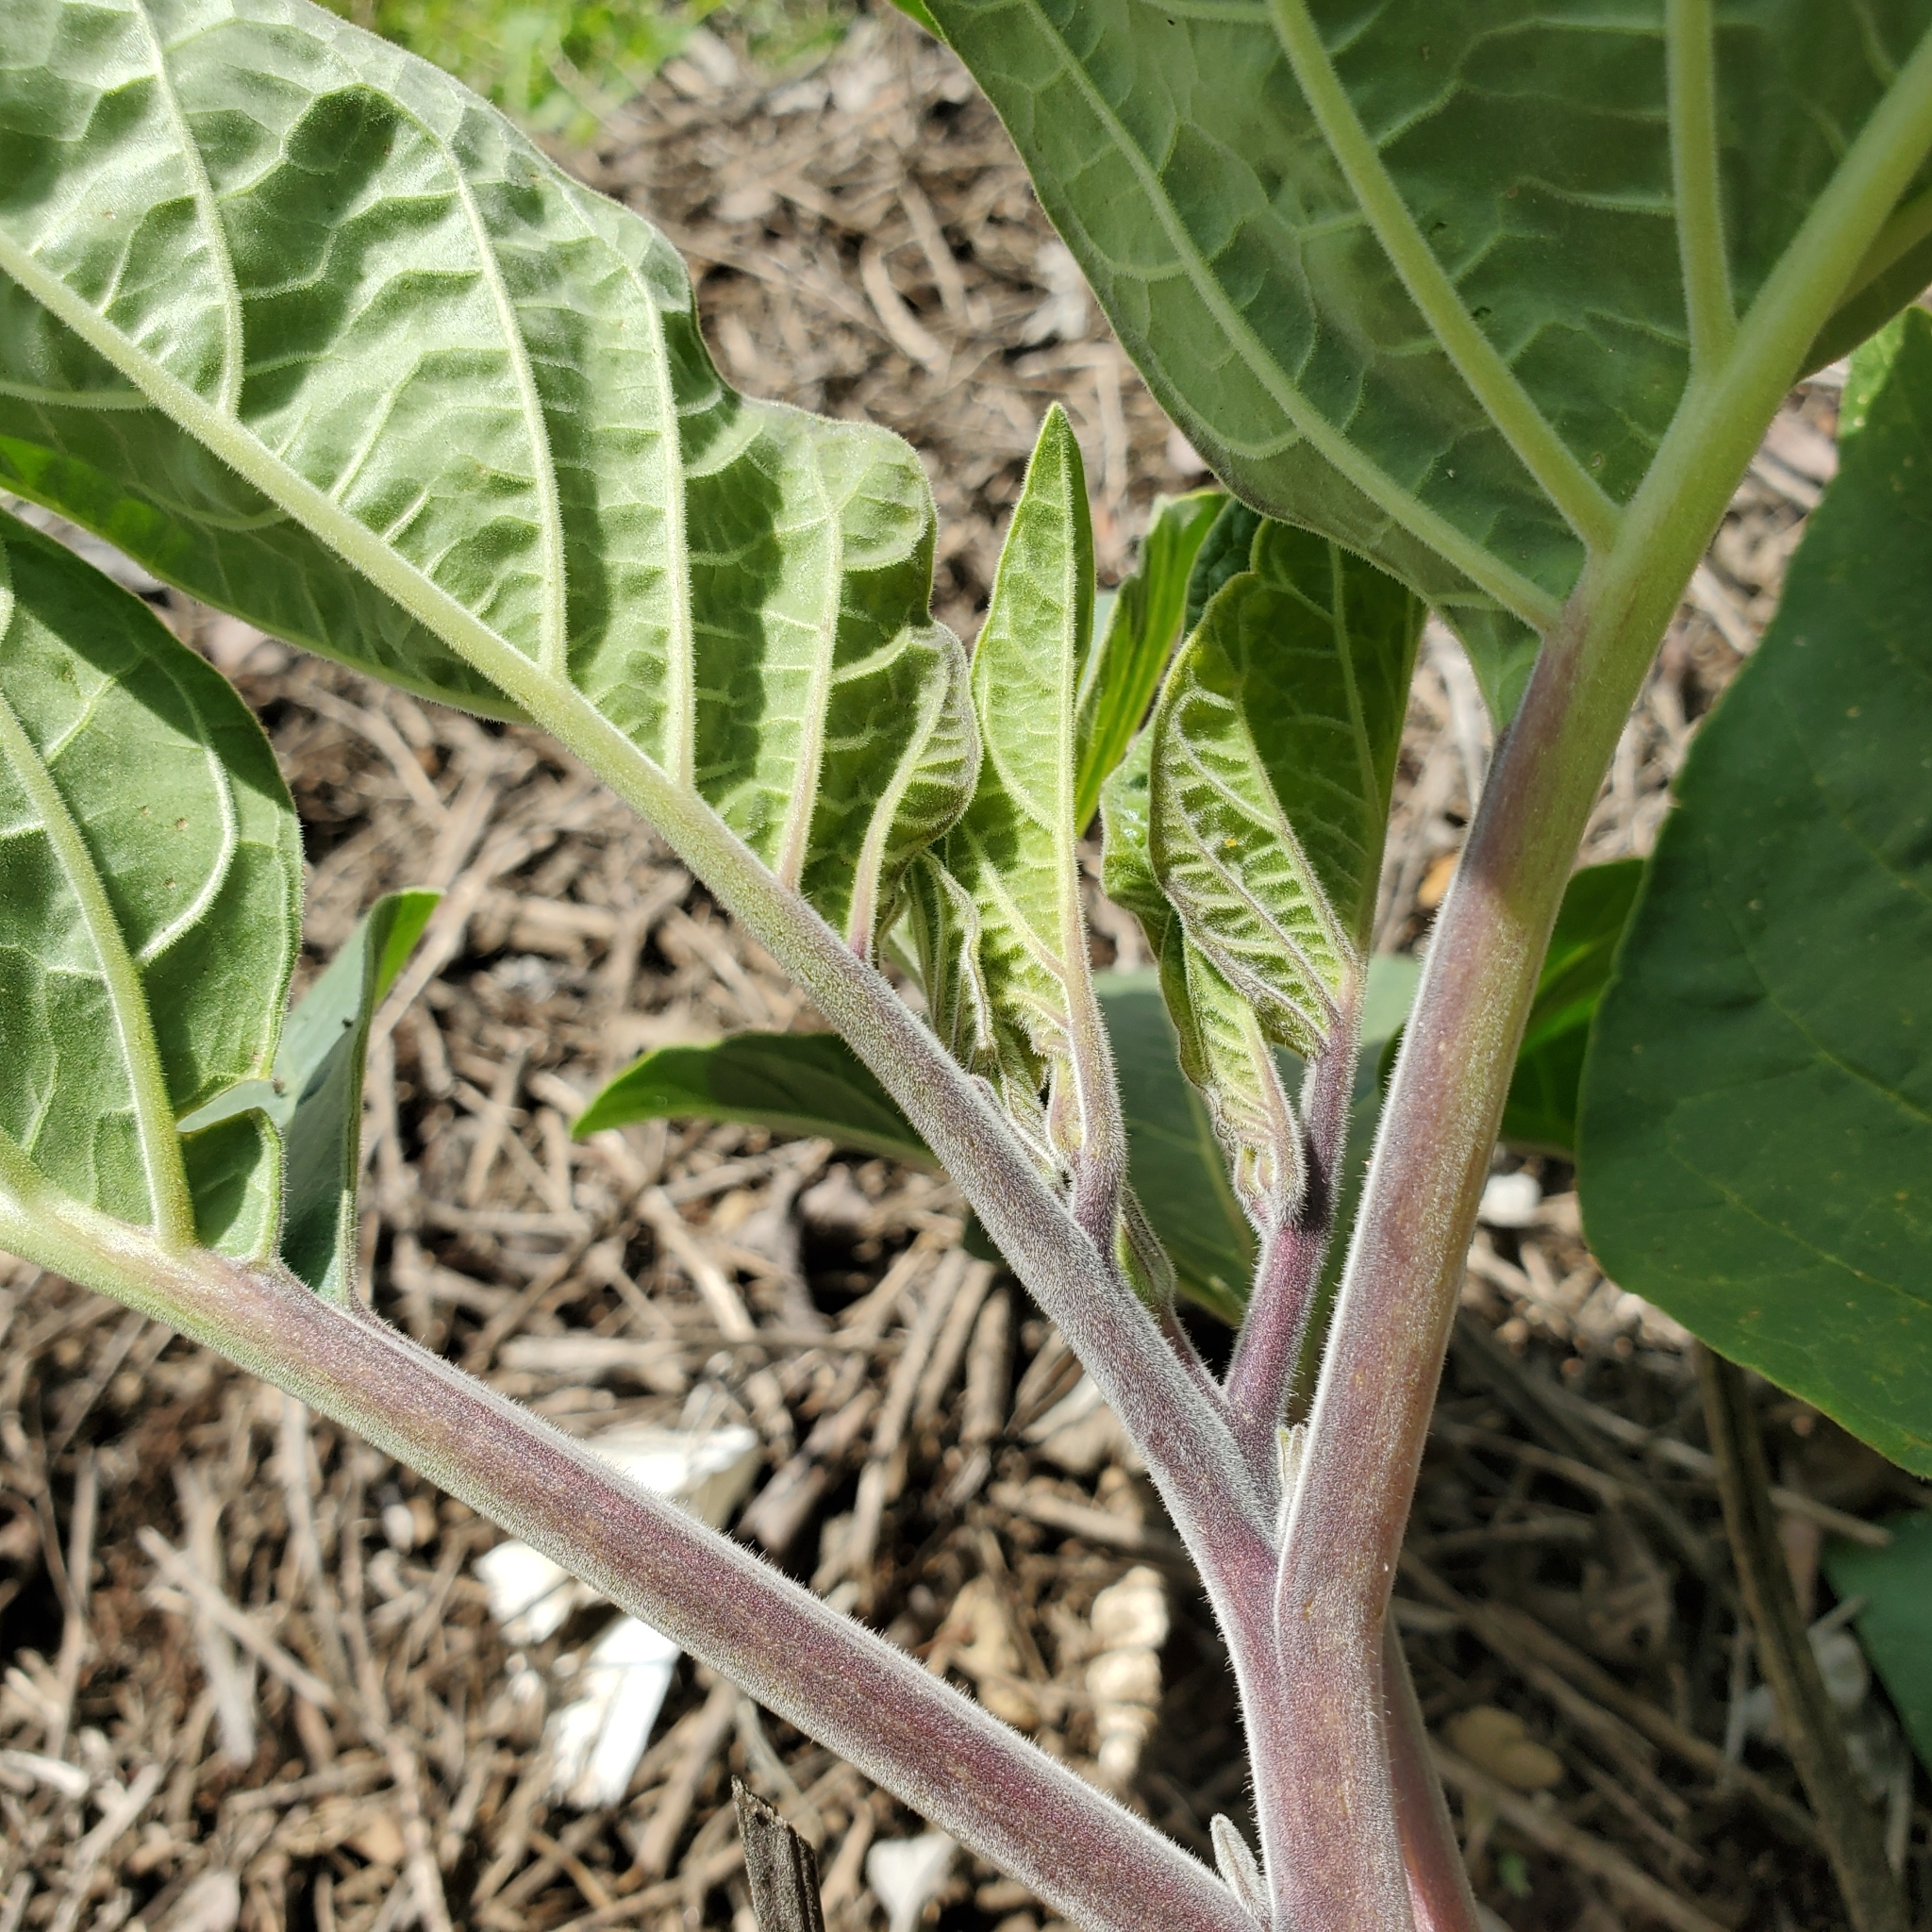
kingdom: Plantae
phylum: Tracheophyta
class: Magnoliopsida
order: Solanales
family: Solanaceae
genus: Datura
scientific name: Datura wrightii
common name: Sacred thorn-apple
